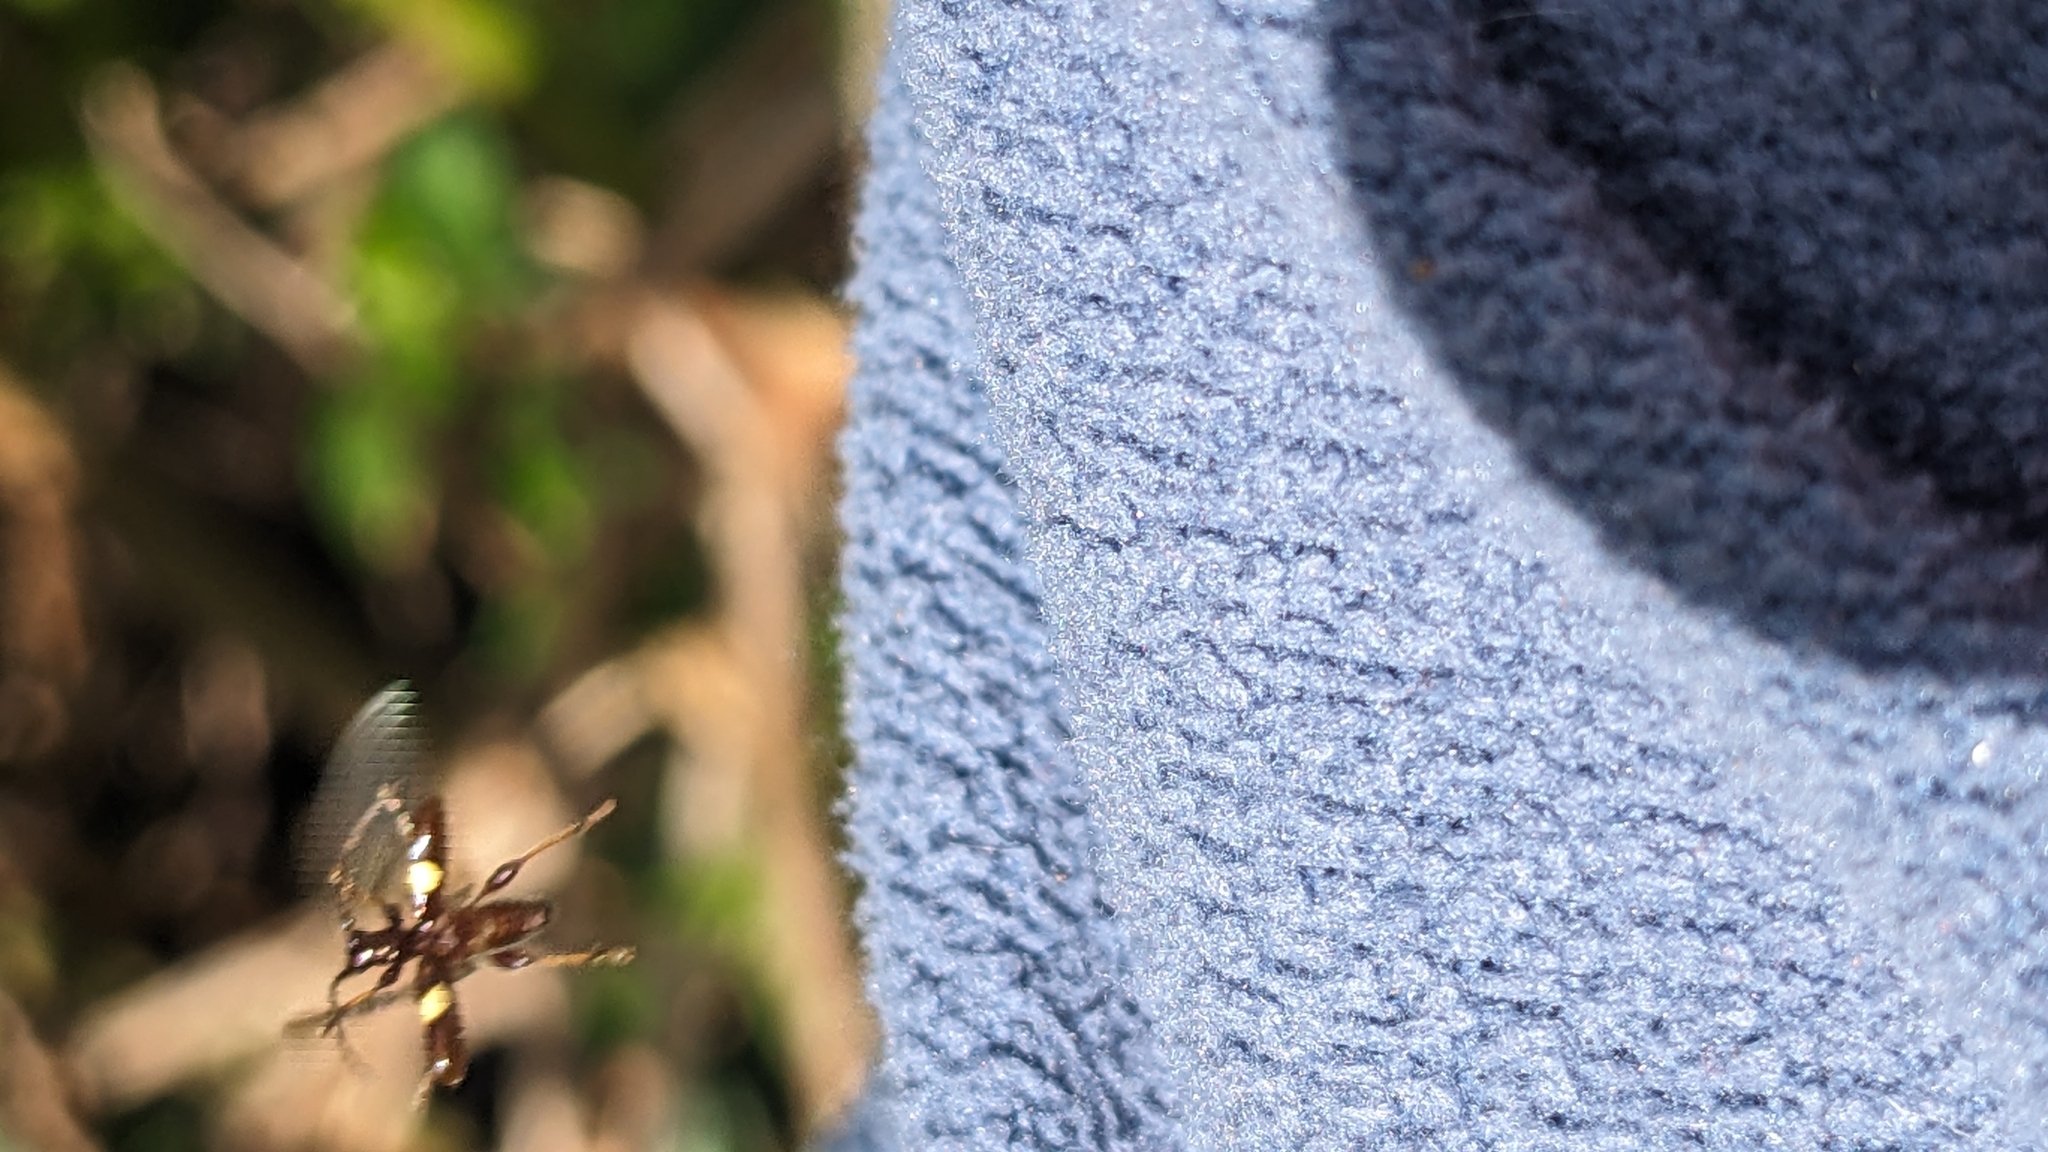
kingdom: Animalia
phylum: Arthropoda
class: Insecta
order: Coleoptera
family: Cerambycidae
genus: Zorion
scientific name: Zorion guttigerum
